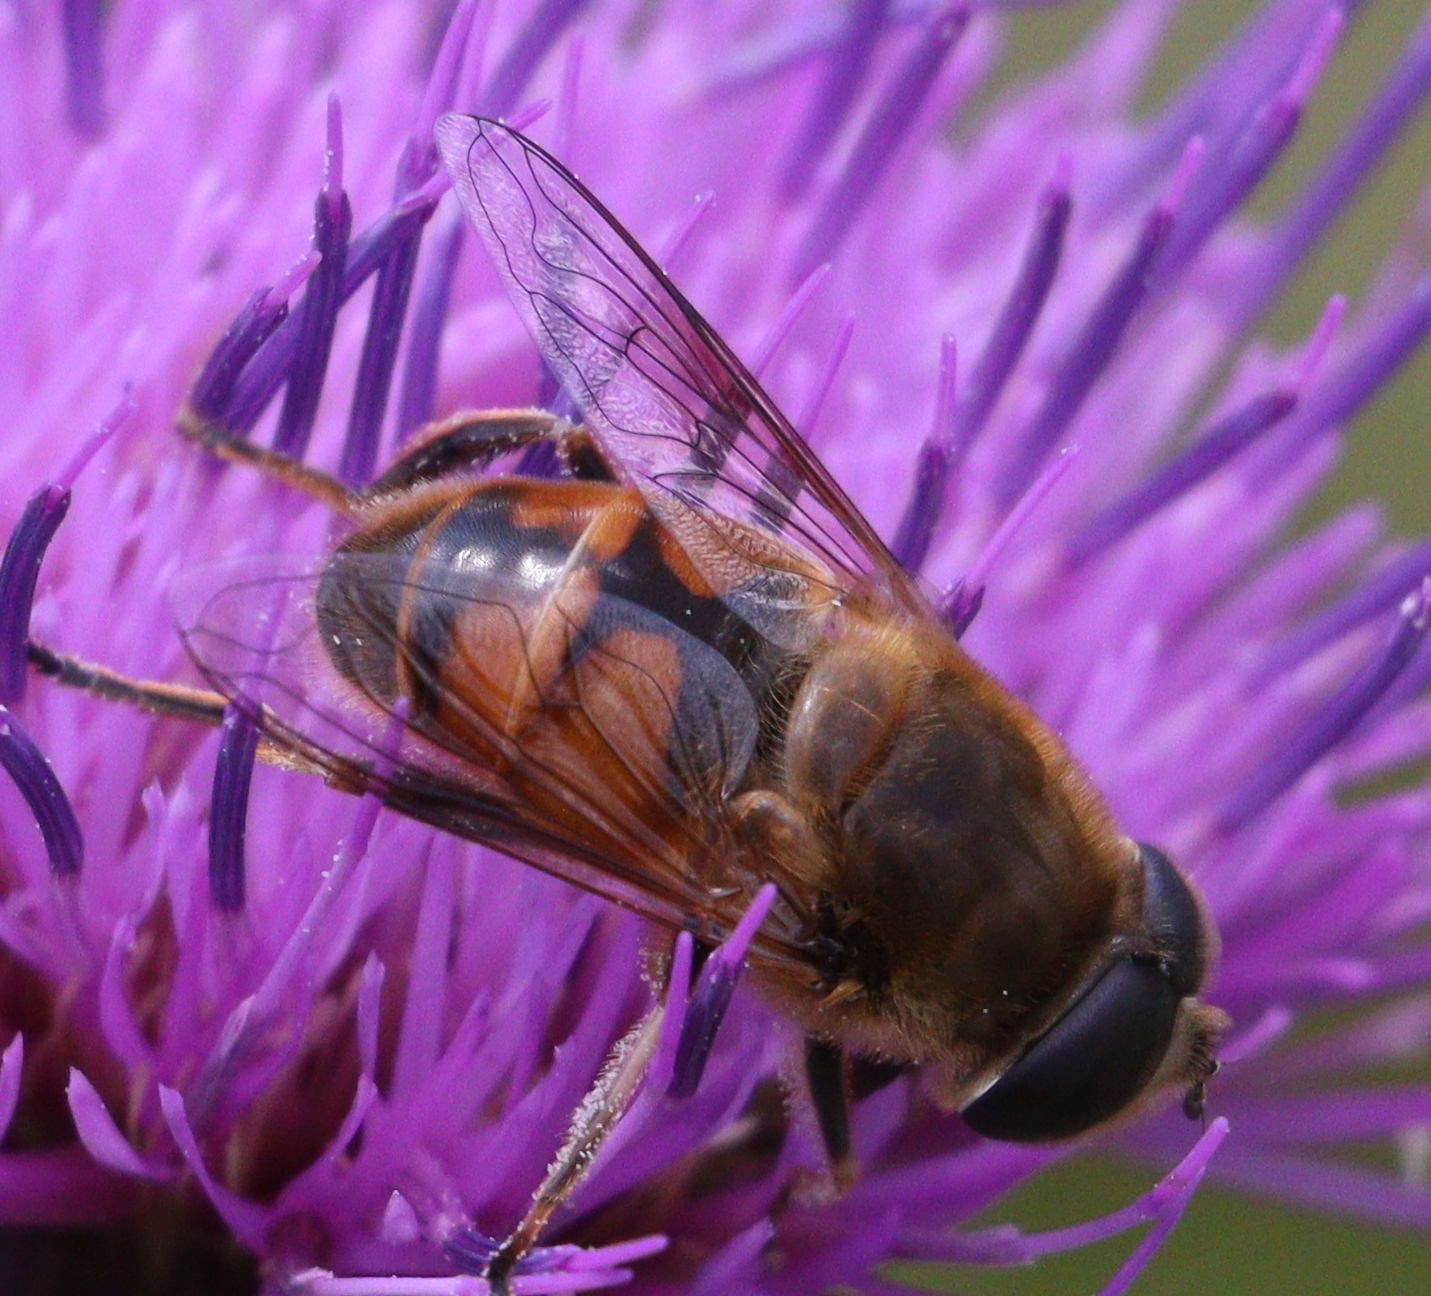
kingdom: Animalia
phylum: Arthropoda
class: Insecta
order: Diptera
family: Syrphidae
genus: Eristalis
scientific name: Eristalis tenax
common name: Drone fly
